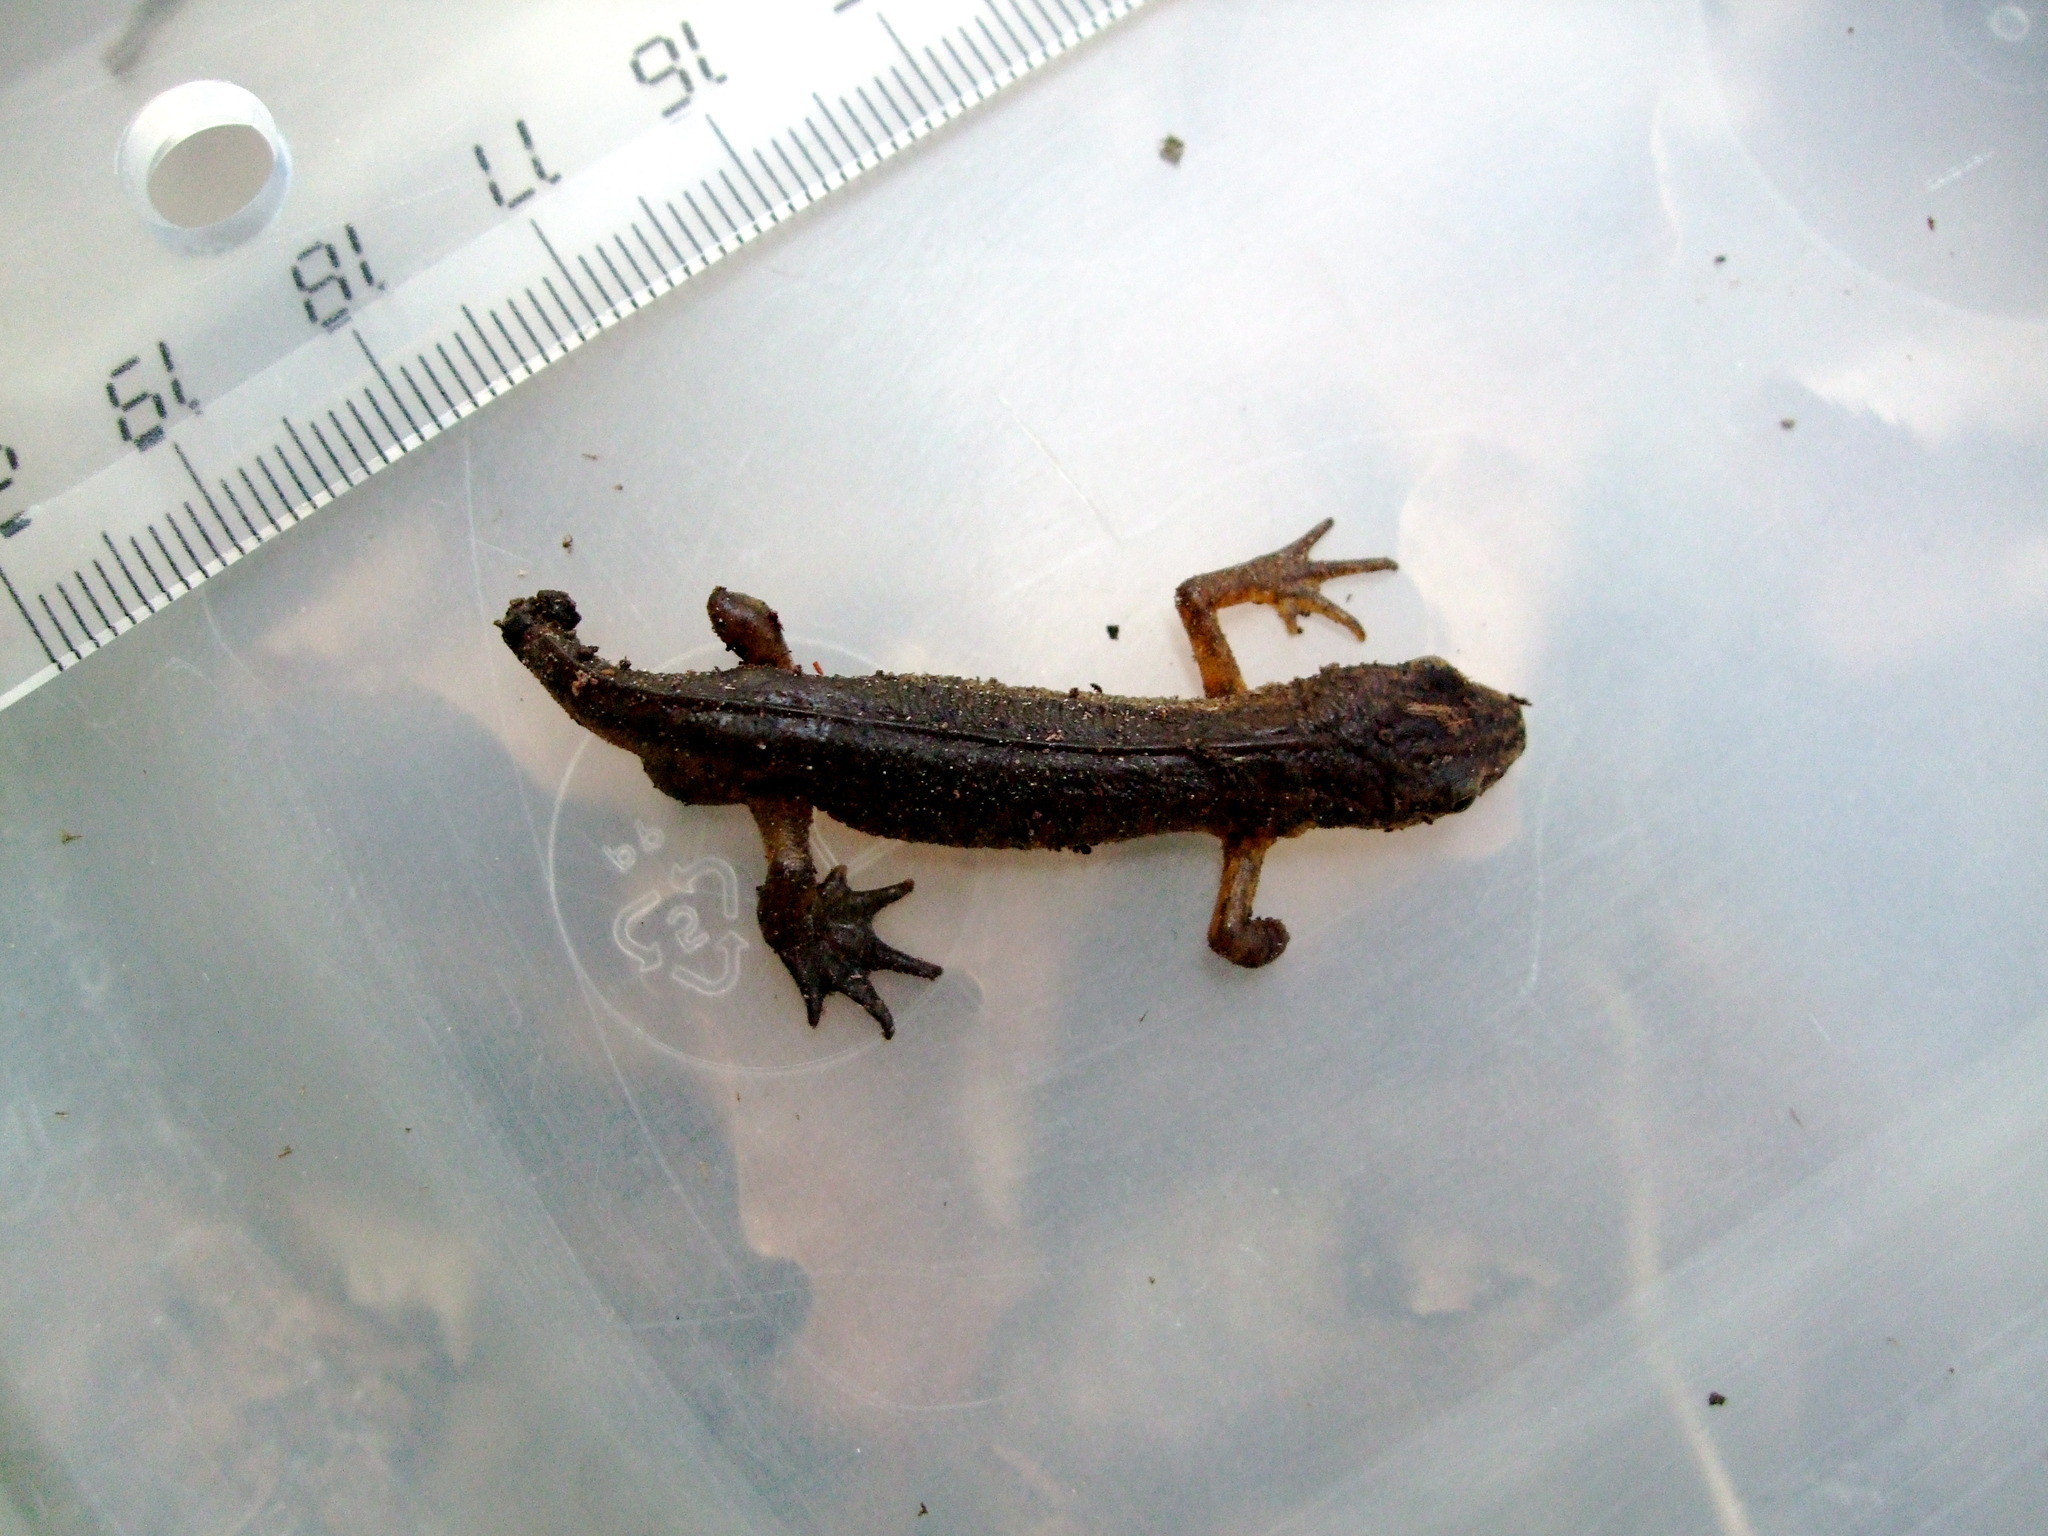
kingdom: Animalia
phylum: Chordata
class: Amphibia
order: Caudata
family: Salamandridae
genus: Lissotriton
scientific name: Lissotriton helveticus
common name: Palmate newt
